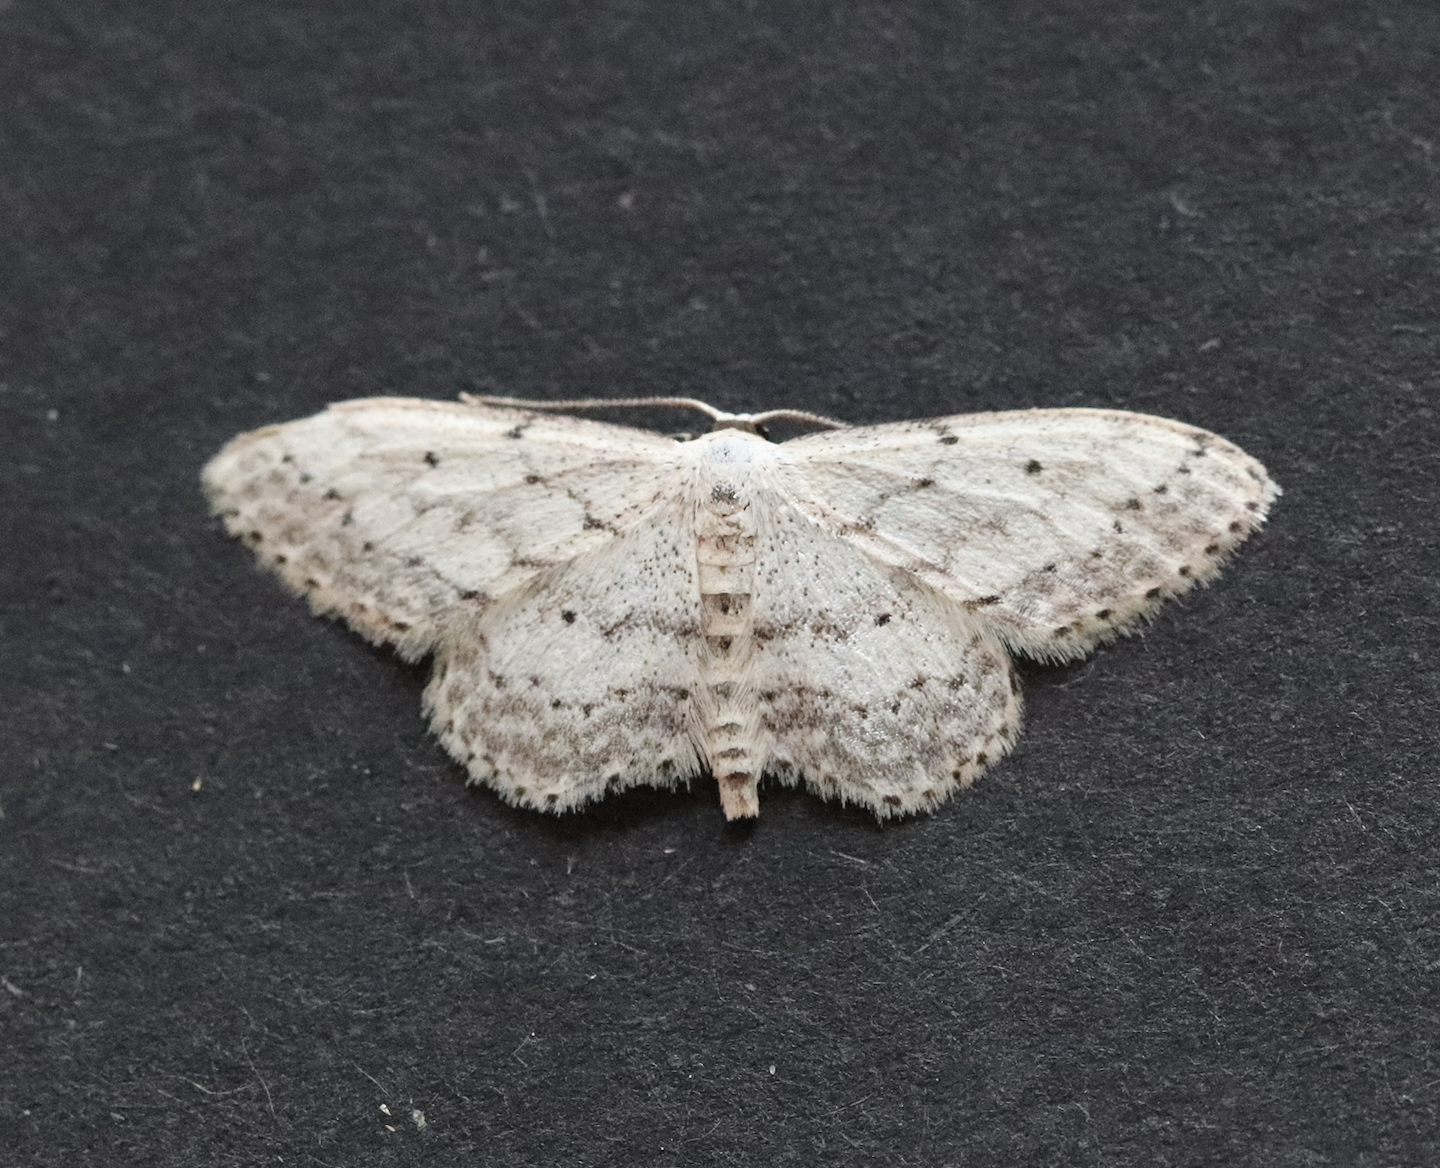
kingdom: Animalia
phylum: Arthropoda
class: Insecta
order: Lepidoptera
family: Geometridae
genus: Idaea
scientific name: Idaea seriata
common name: Small dusty wave
